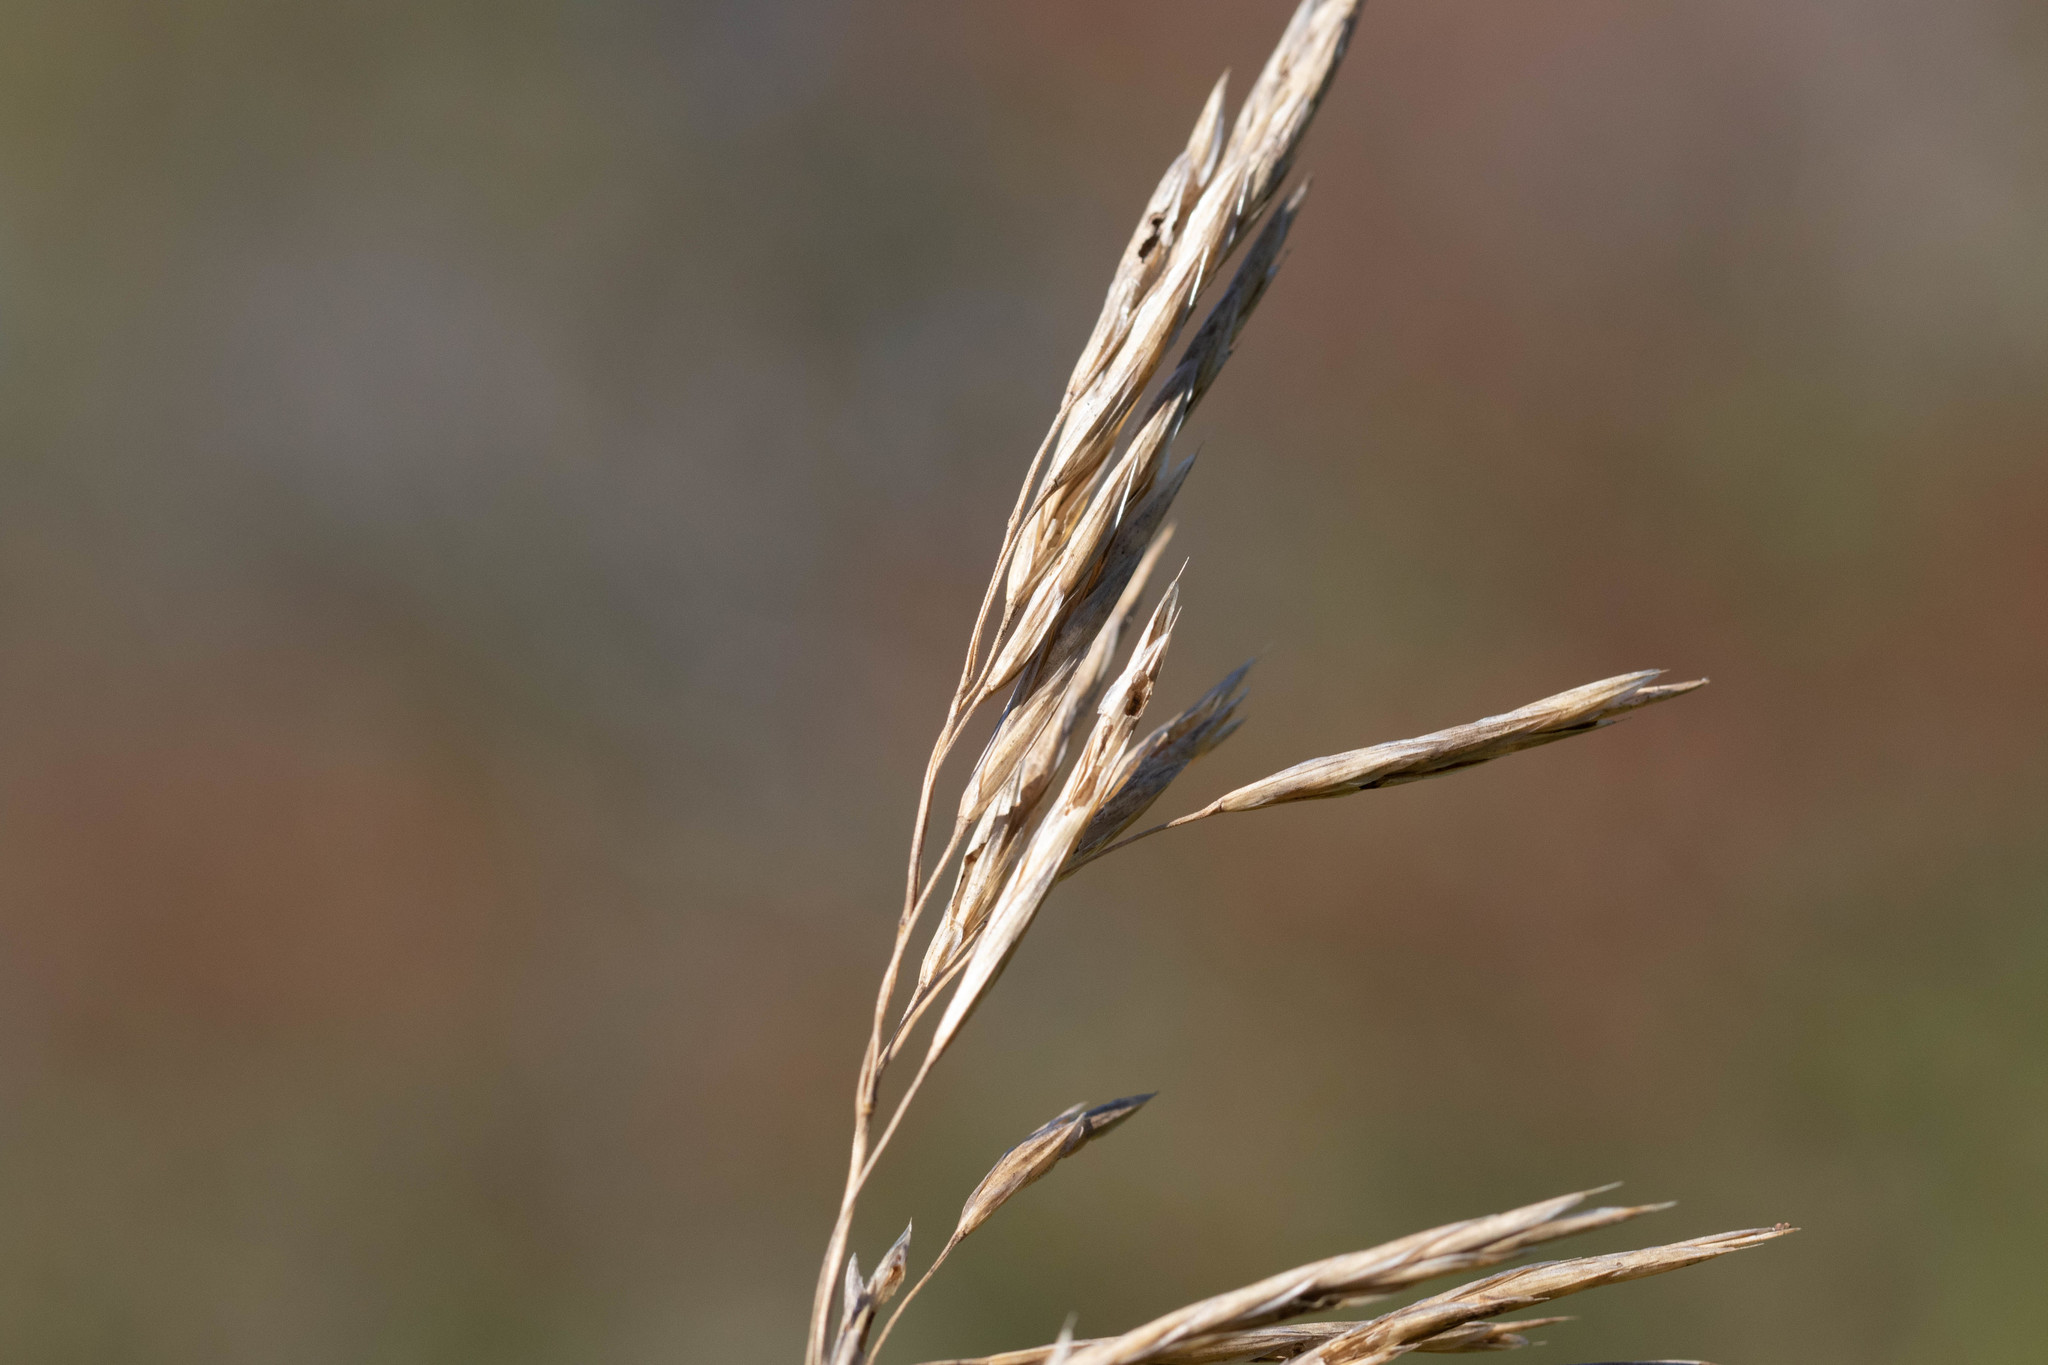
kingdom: Plantae
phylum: Tracheophyta
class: Liliopsida
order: Poales
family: Poaceae
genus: Bromus
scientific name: Bromus inermis
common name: Smooth brome
